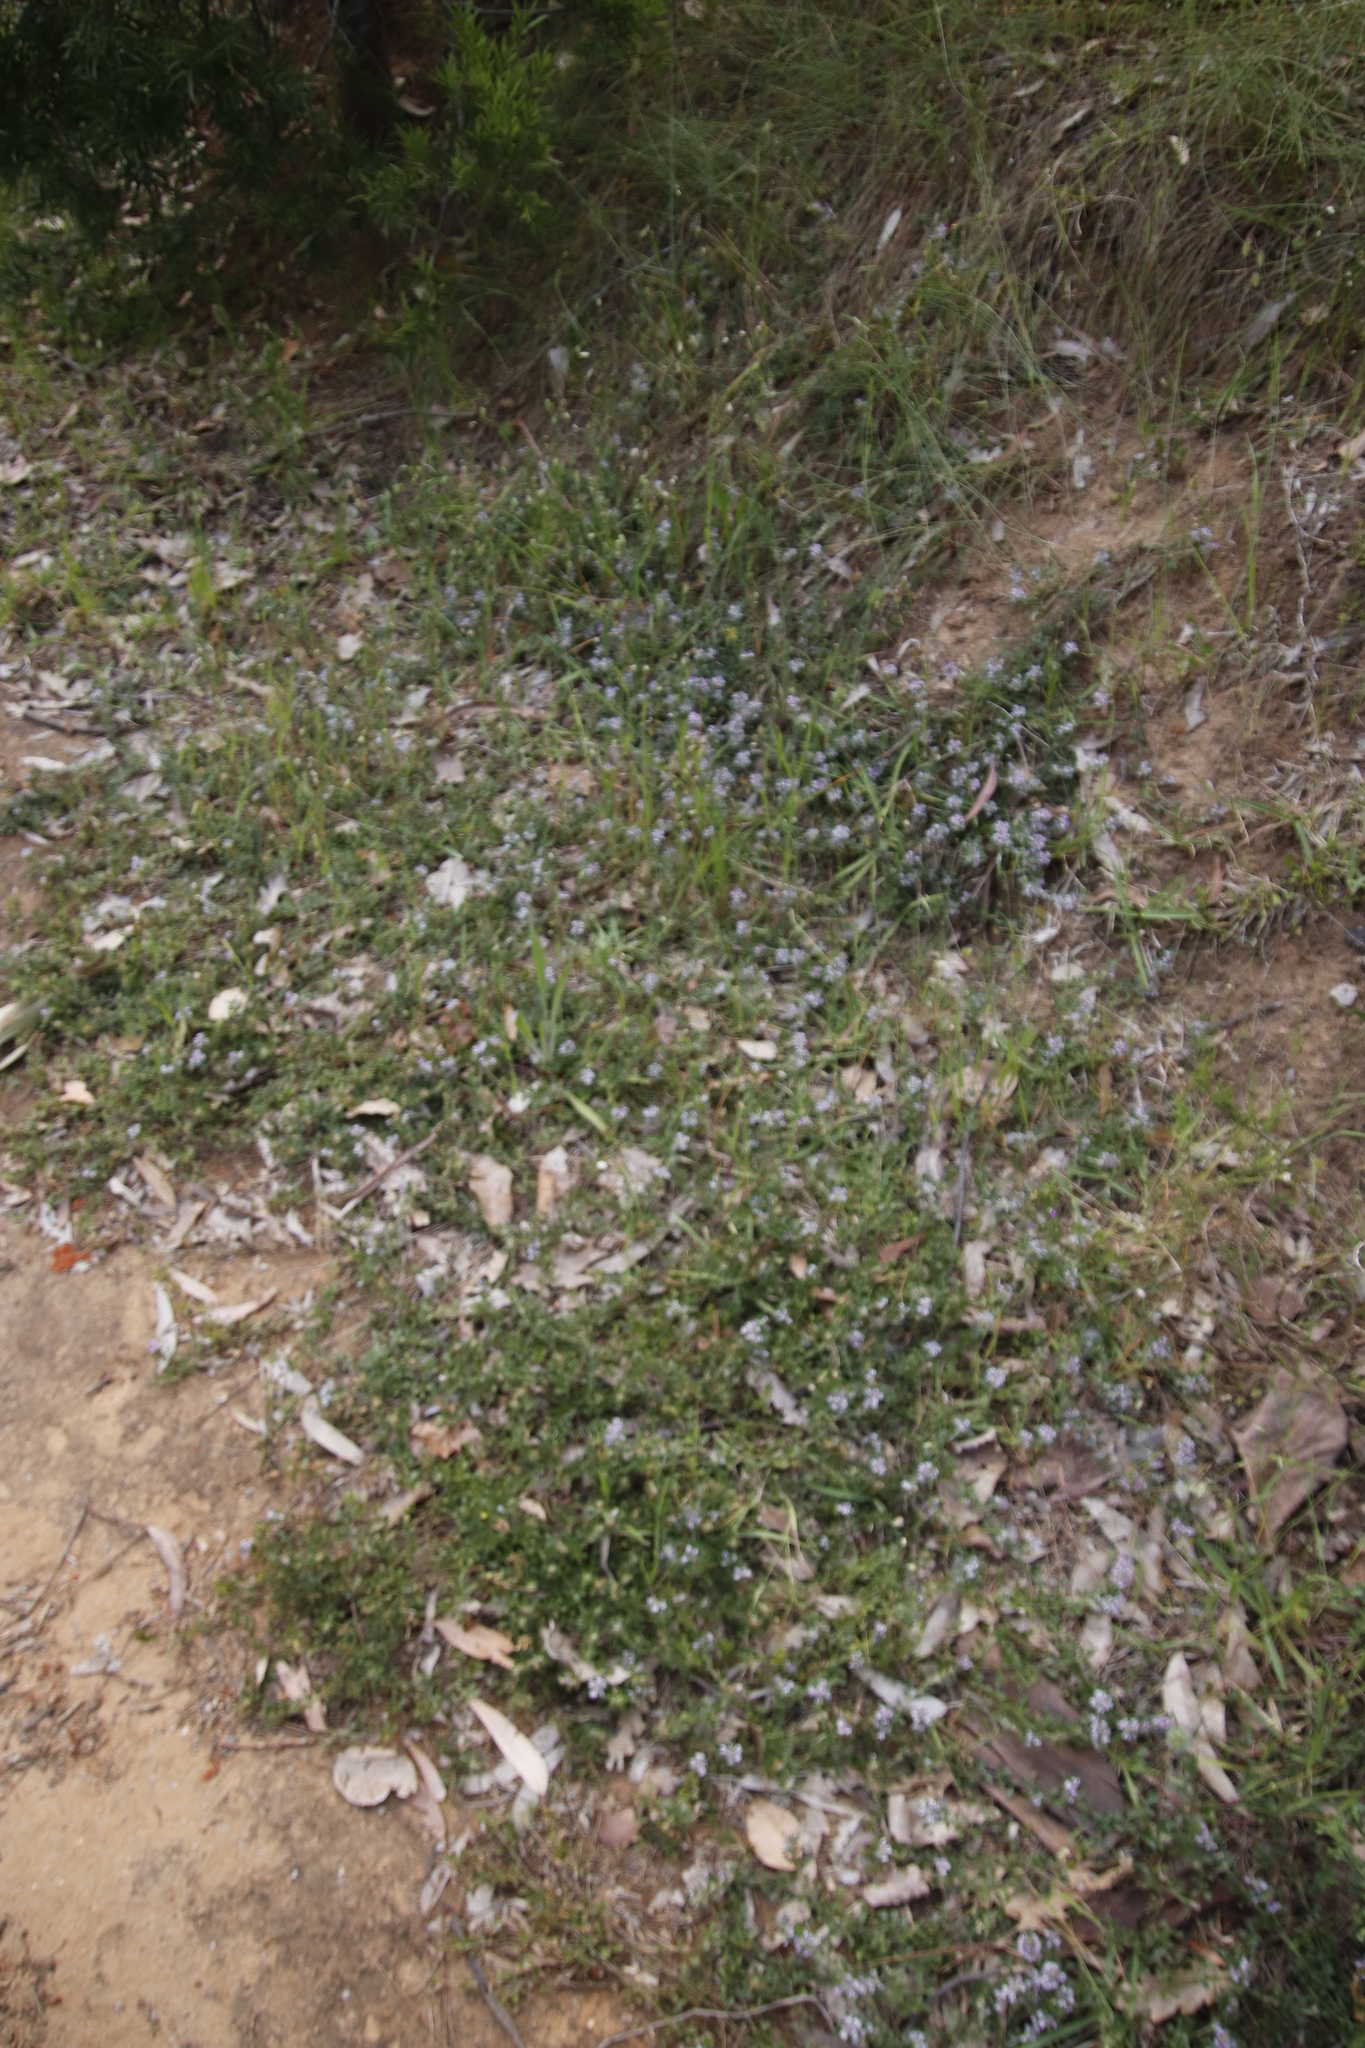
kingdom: Plantae
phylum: Tracheophyta
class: Magnoliopsida
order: Fabales
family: Fabaceae
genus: Psoralea
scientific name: Psoralea
